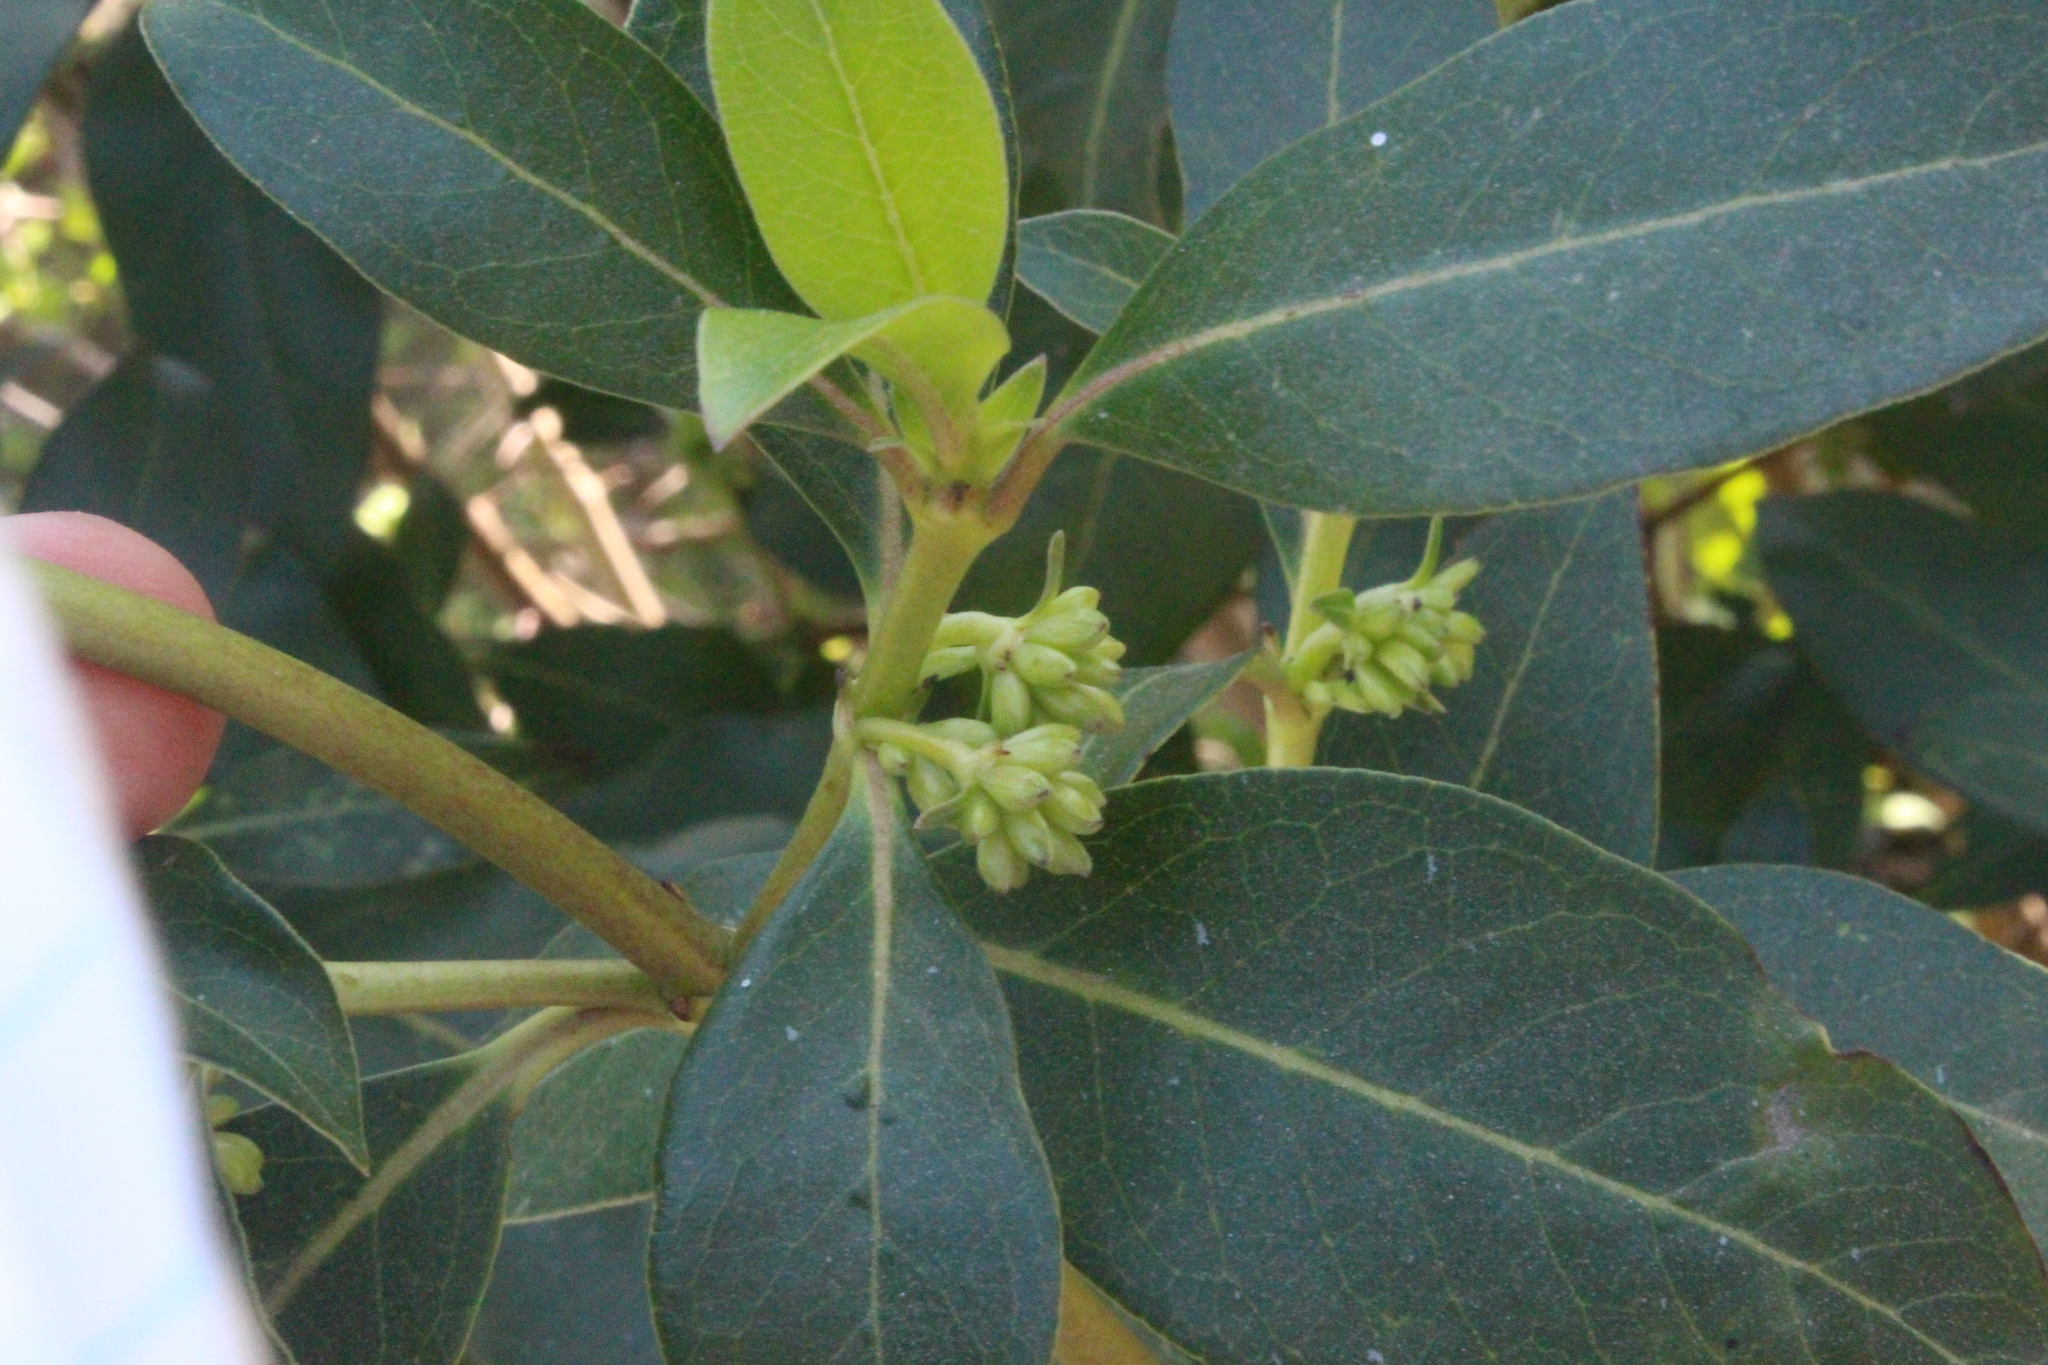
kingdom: Plantae
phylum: Tracheophyta
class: Magnoliopsida
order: Gentianales
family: Rubiaceae
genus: Coprosma
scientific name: Coprosma robusta
